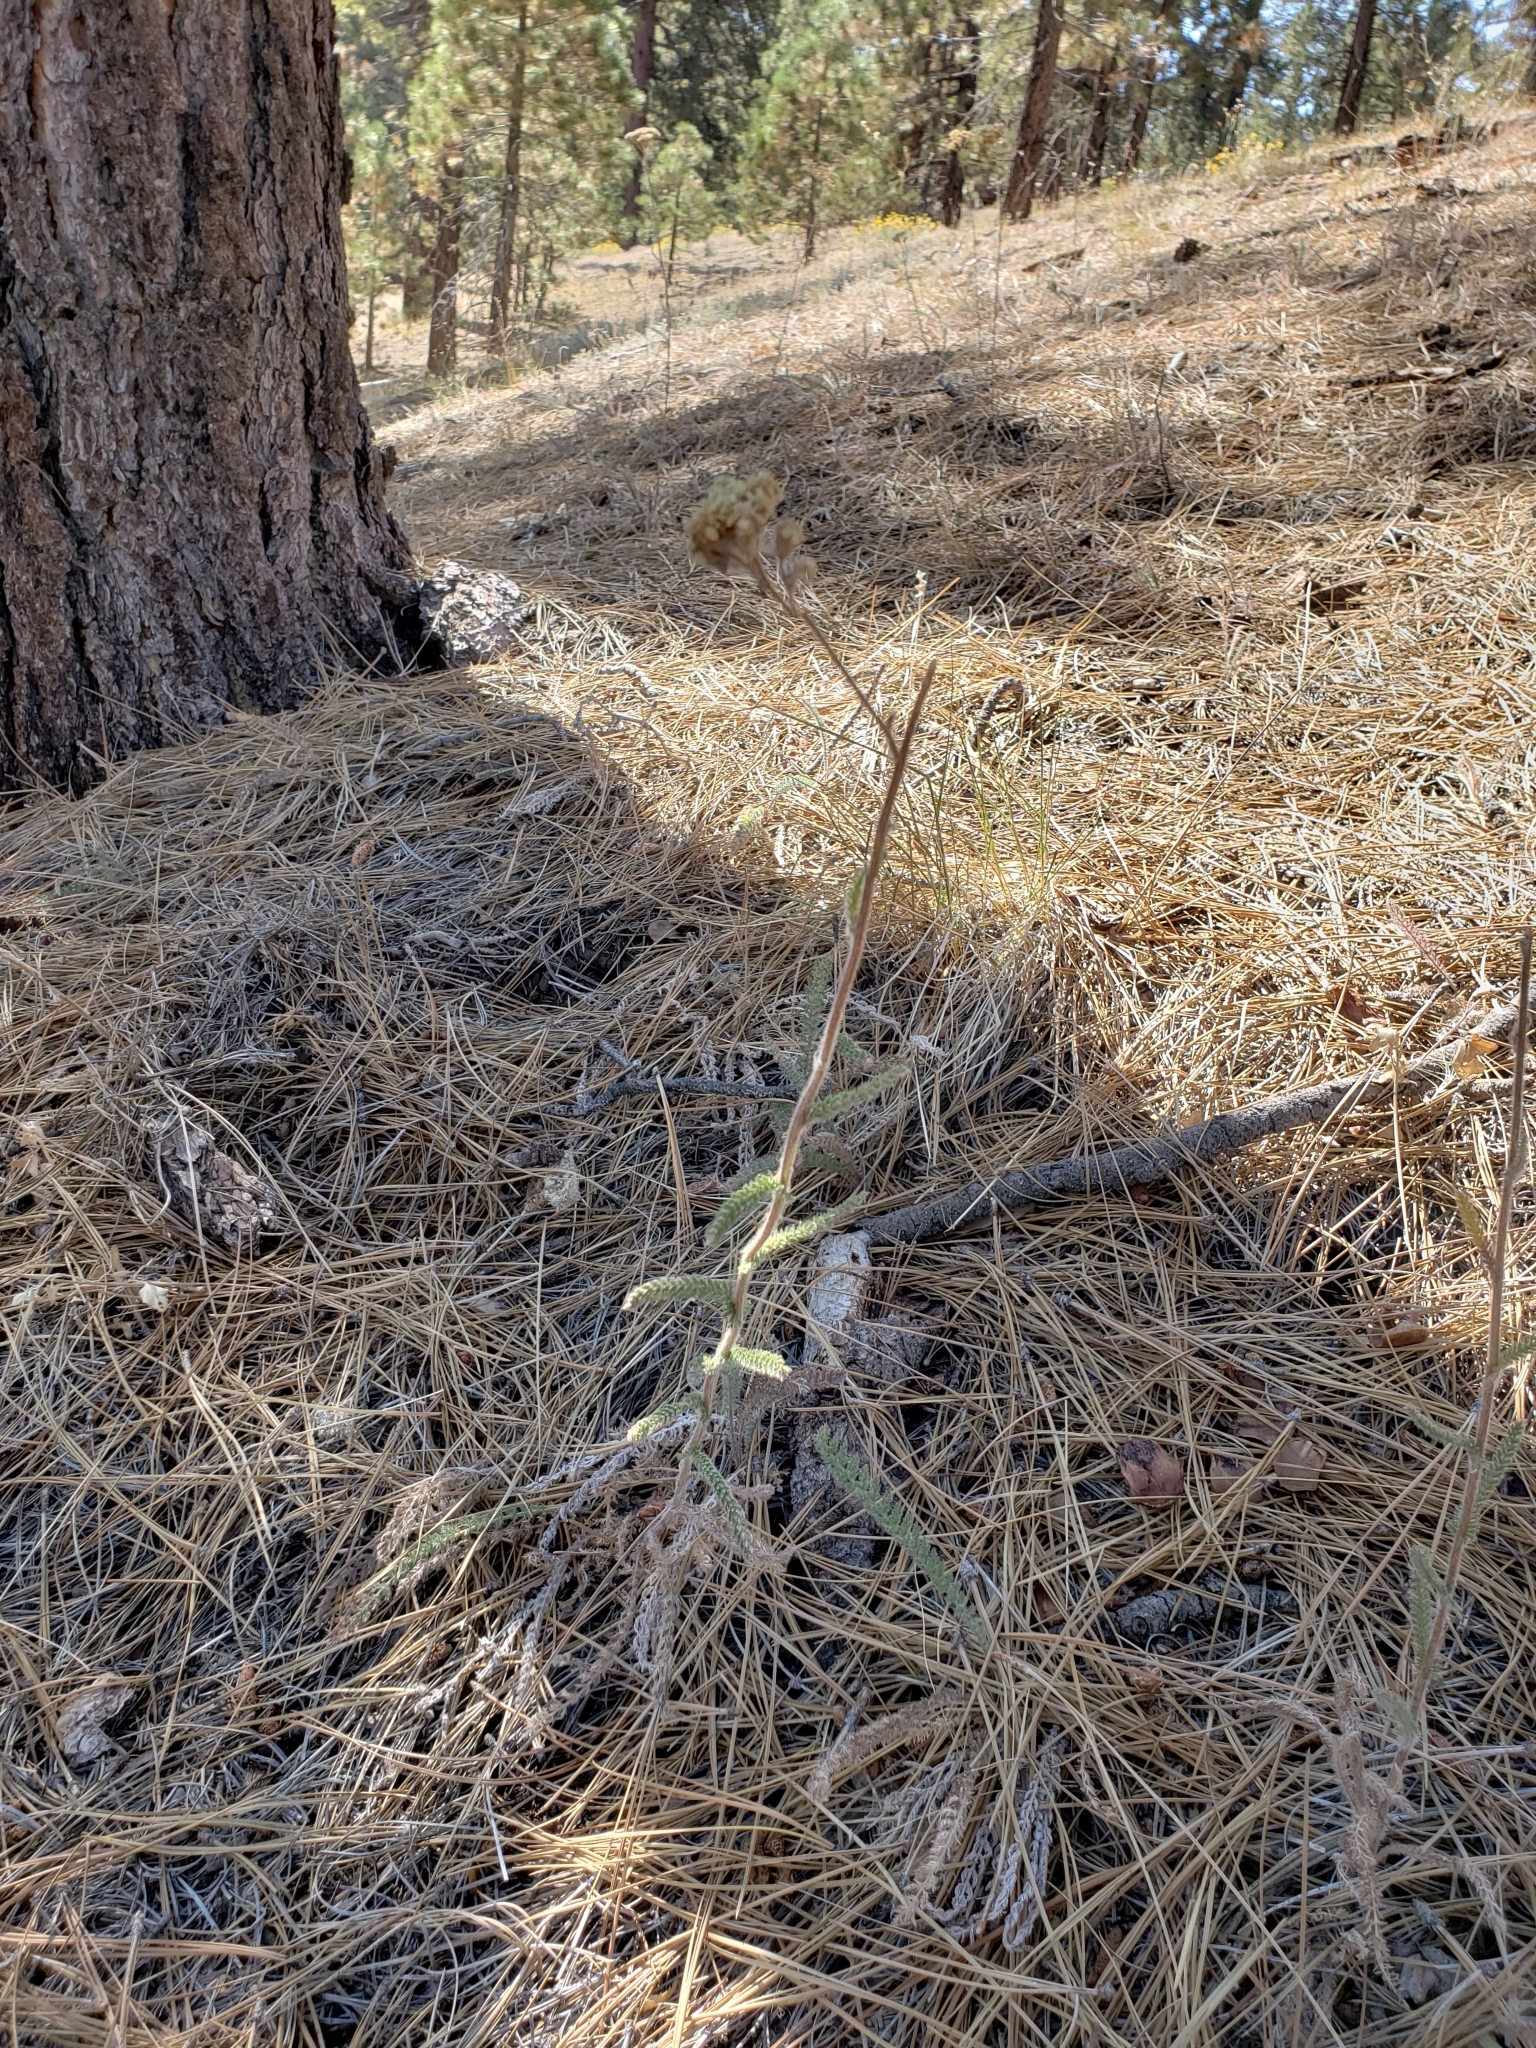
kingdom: Plantae
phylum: Tracheophyta
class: Magnoliopsida
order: Asterales
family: Asteraceae
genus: Achillea
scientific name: Achillea millefolium
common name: Yarrow
